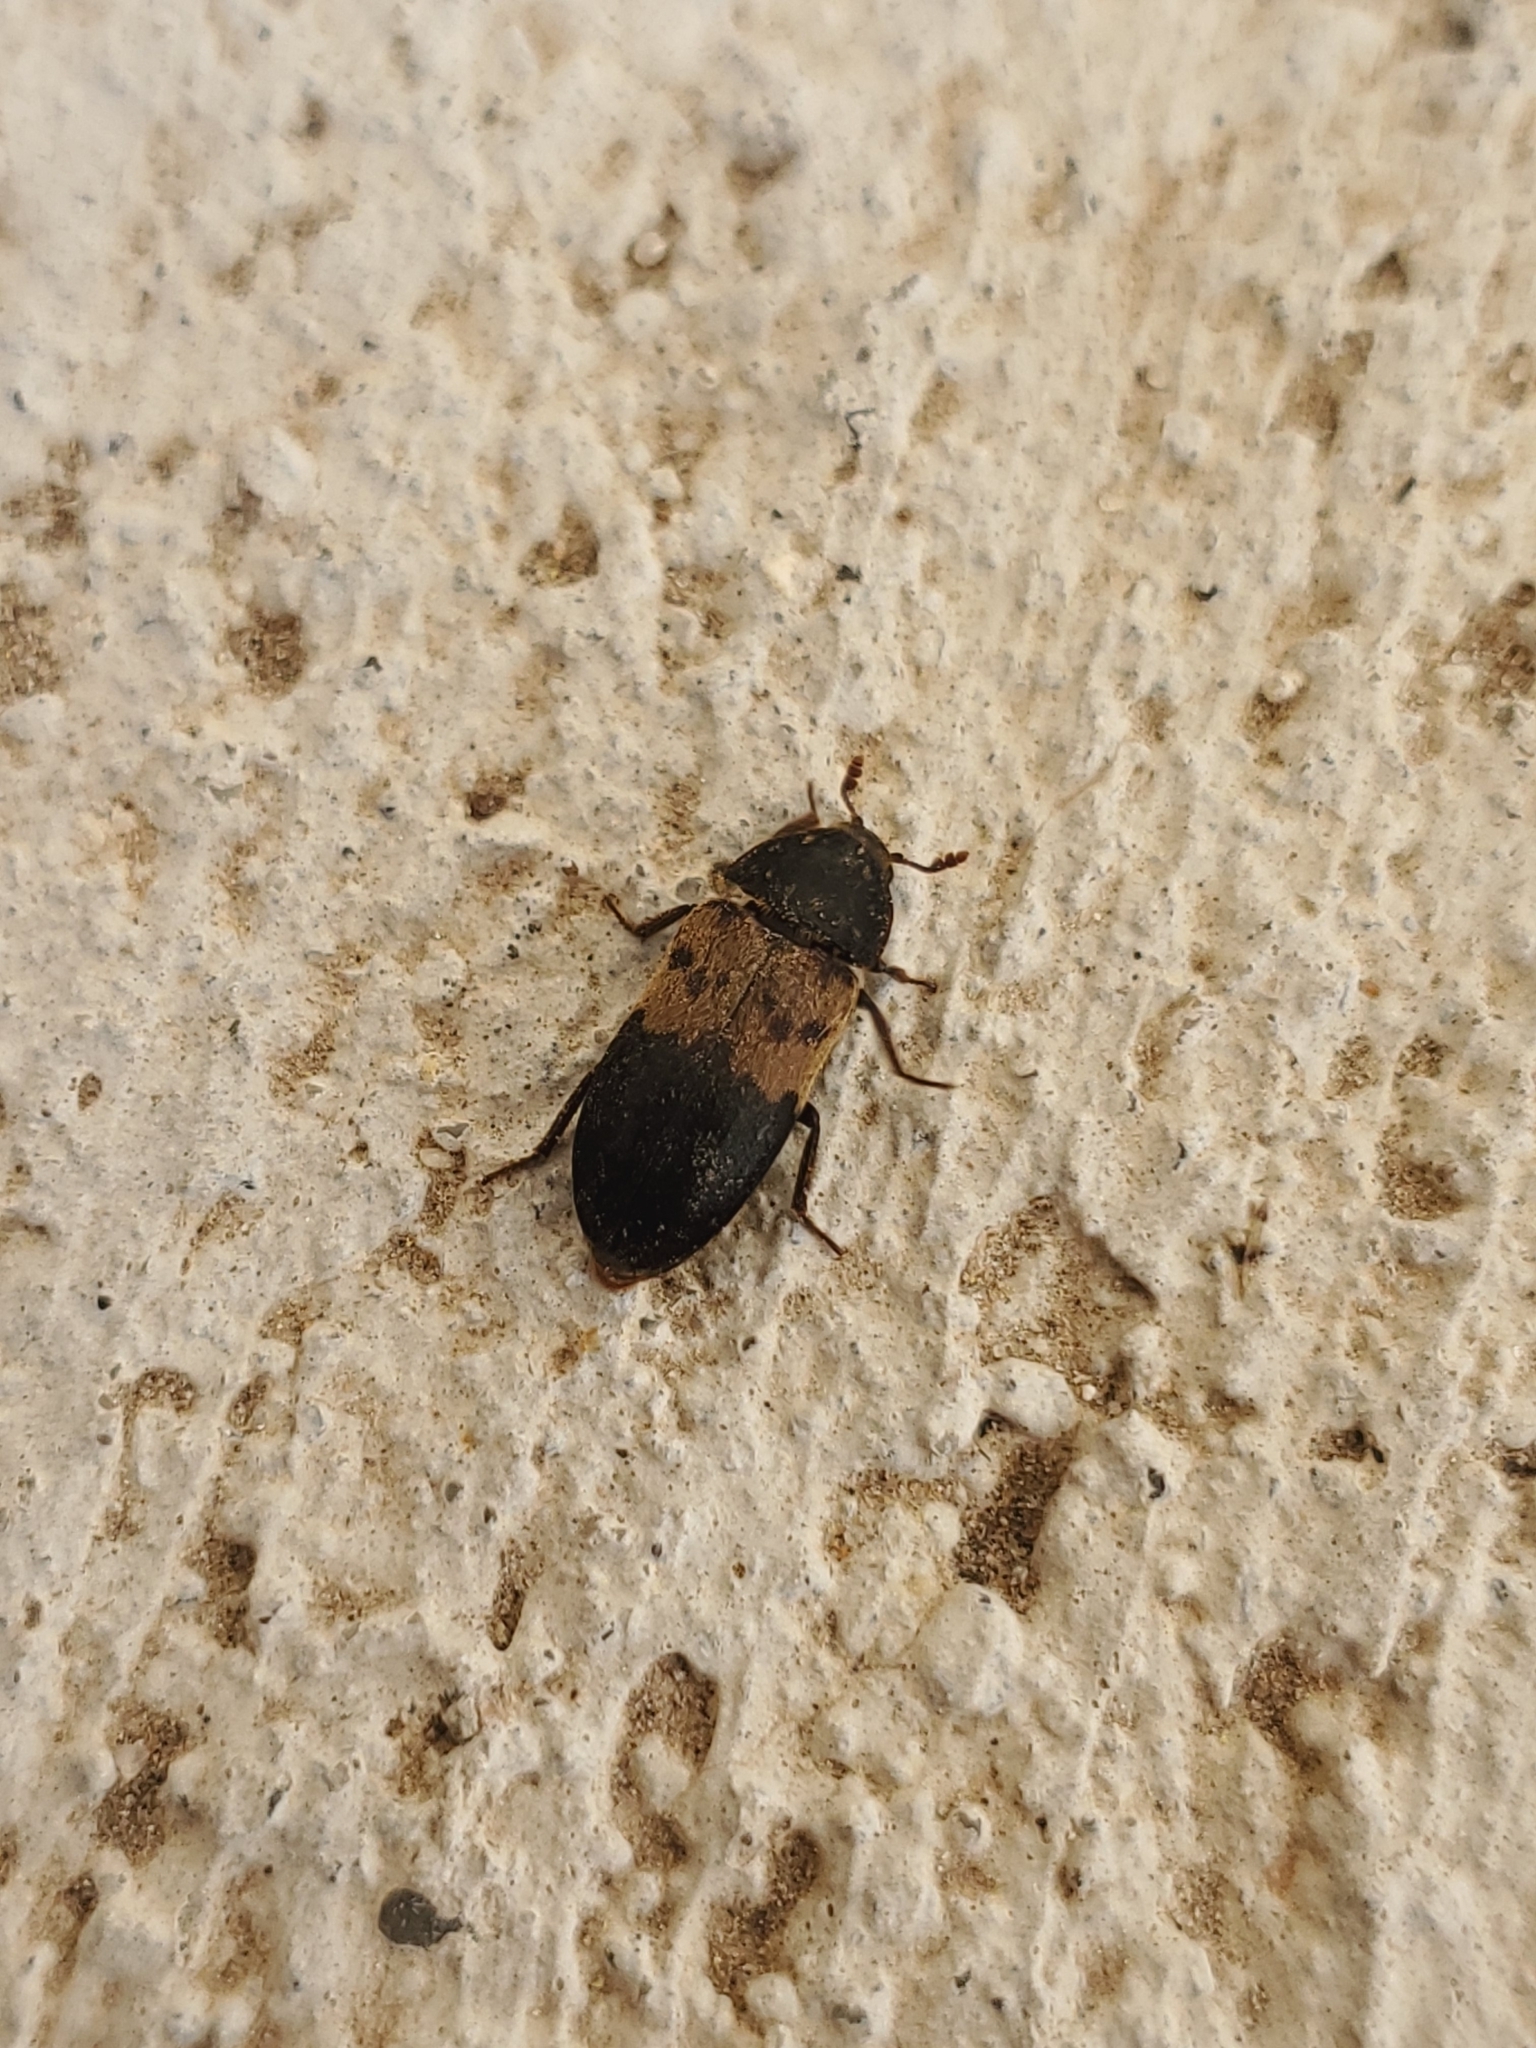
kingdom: Animalia
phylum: Arthropoda
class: Insecta
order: Coleoptera
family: Dermestidae
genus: Dermestes
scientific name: Dermestes lardarius
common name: Larder beetle
